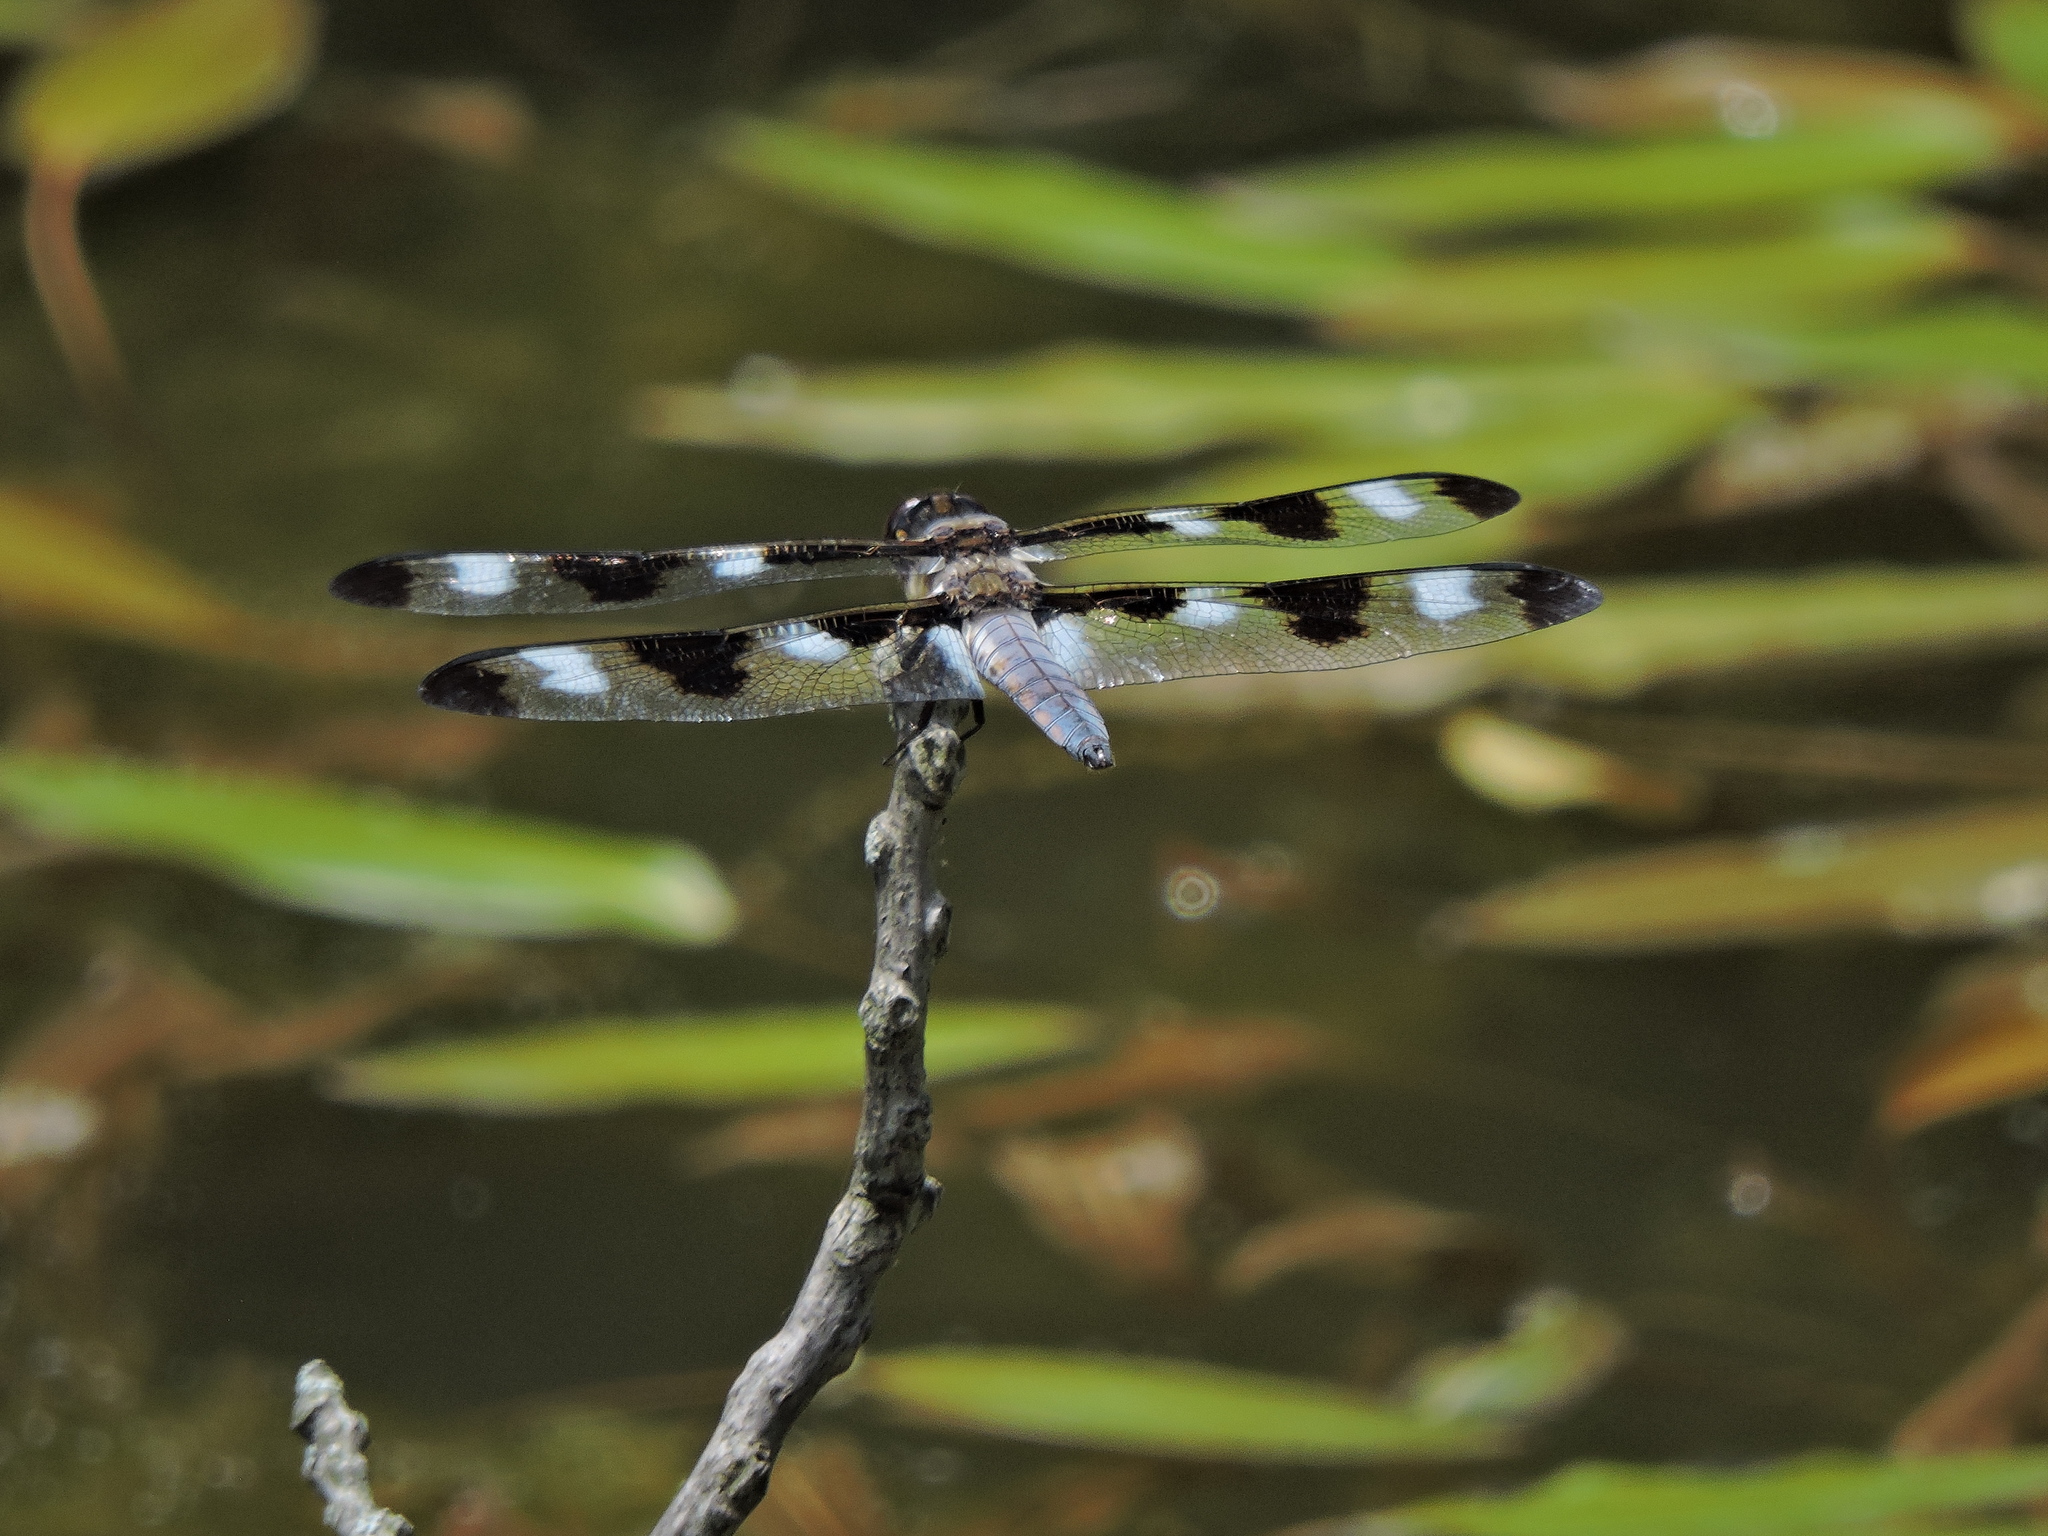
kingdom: Animalia
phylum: Arthropoda
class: Insecta
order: Odonata
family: Libellulidae
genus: Libellula
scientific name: Libellula pulchella
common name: Twelve-spotted skimmer
